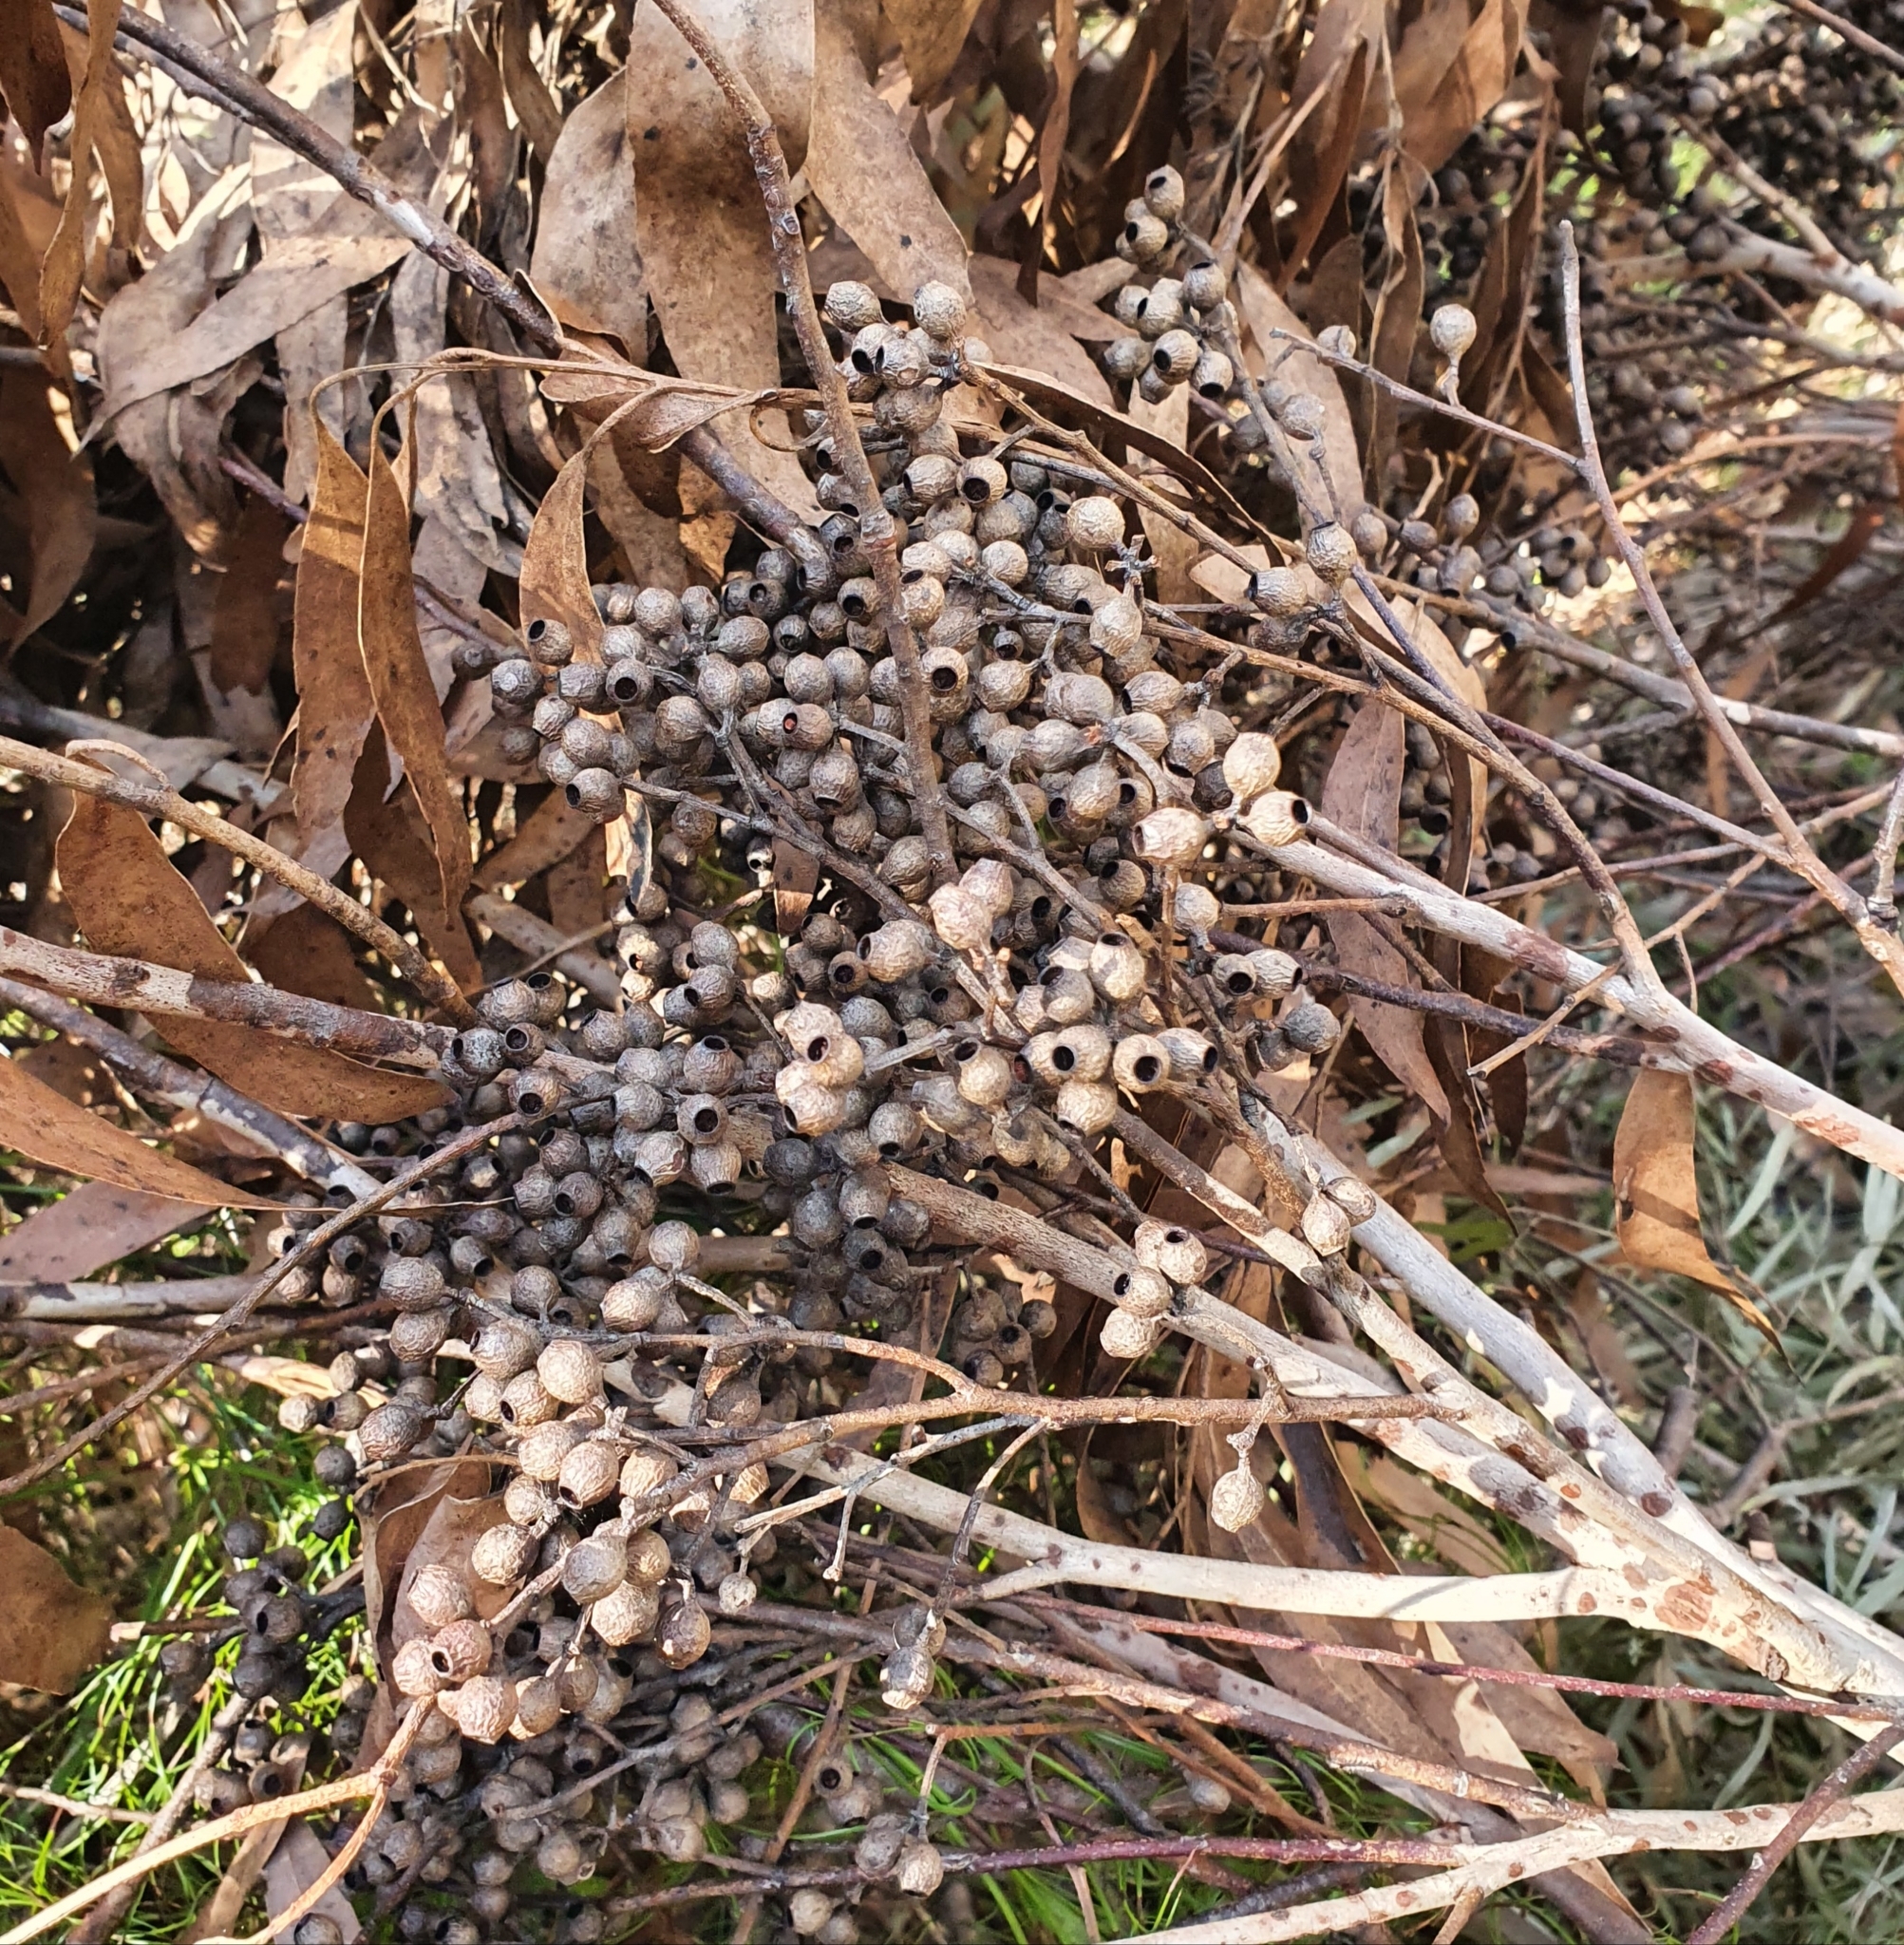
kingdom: Plantae
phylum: Tracheophyta
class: Magnoliopsida
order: Myrtales
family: Myrtaceae
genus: Eucalyptus
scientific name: Eucalyptus piperita
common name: Sydney peppermint
